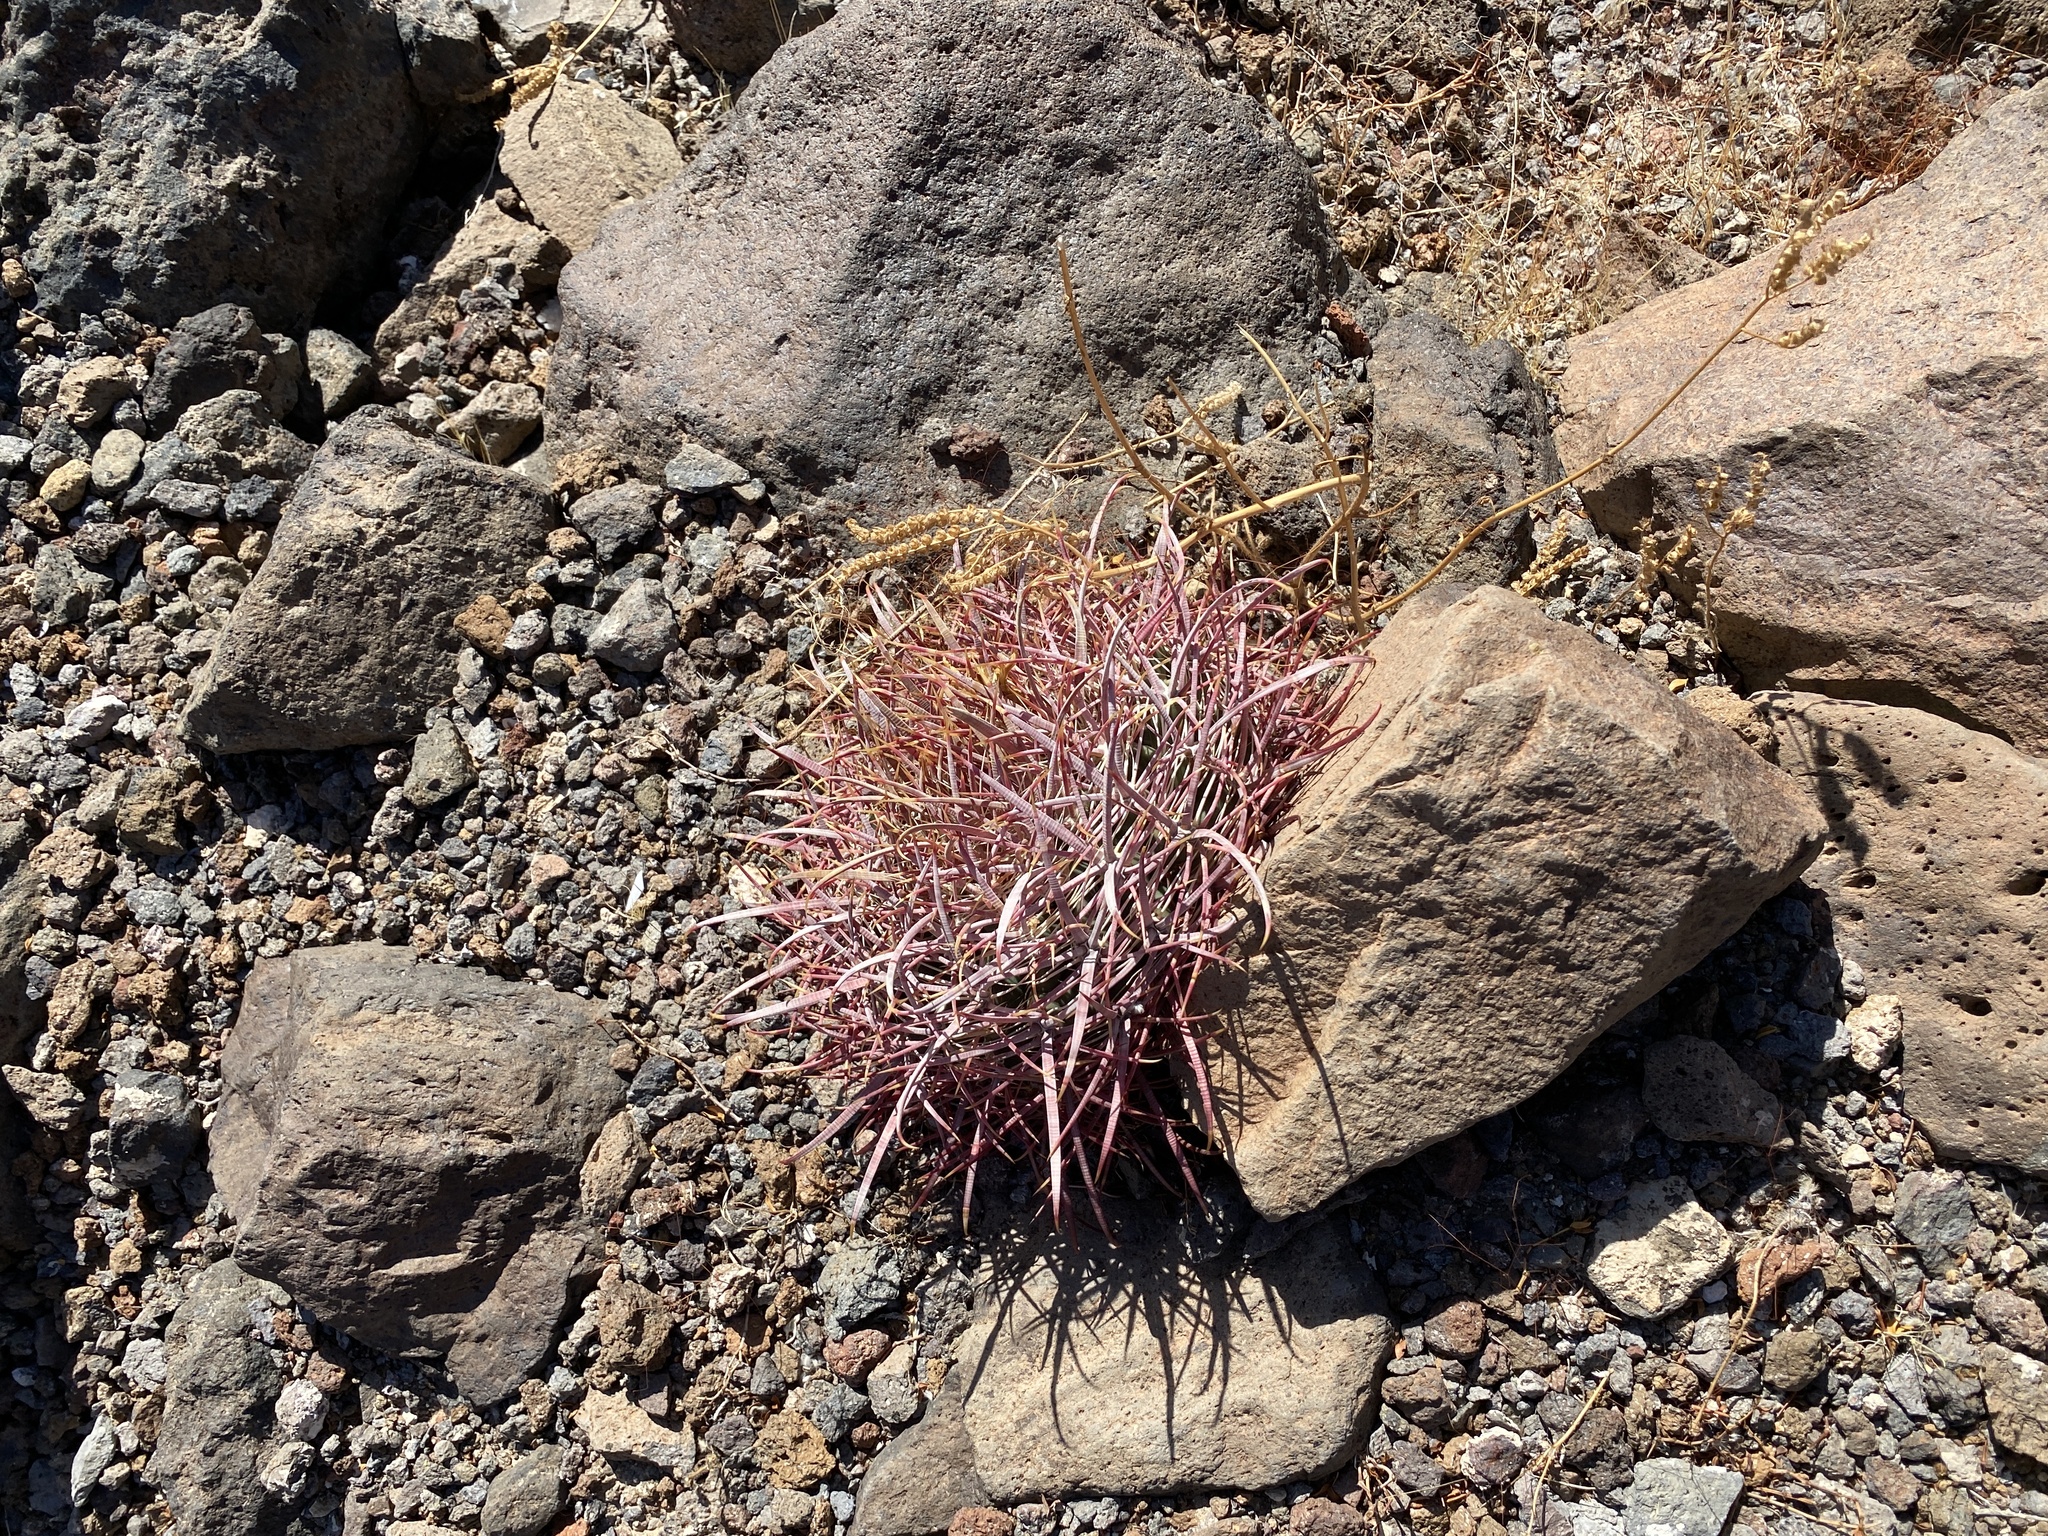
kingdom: Plantae
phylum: Tracheophyta
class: Magnoliopsida
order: Caryophyllales
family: Cactaceae
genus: Ferocactus
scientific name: Ferocactus cylindraceus
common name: California barrel cactus
